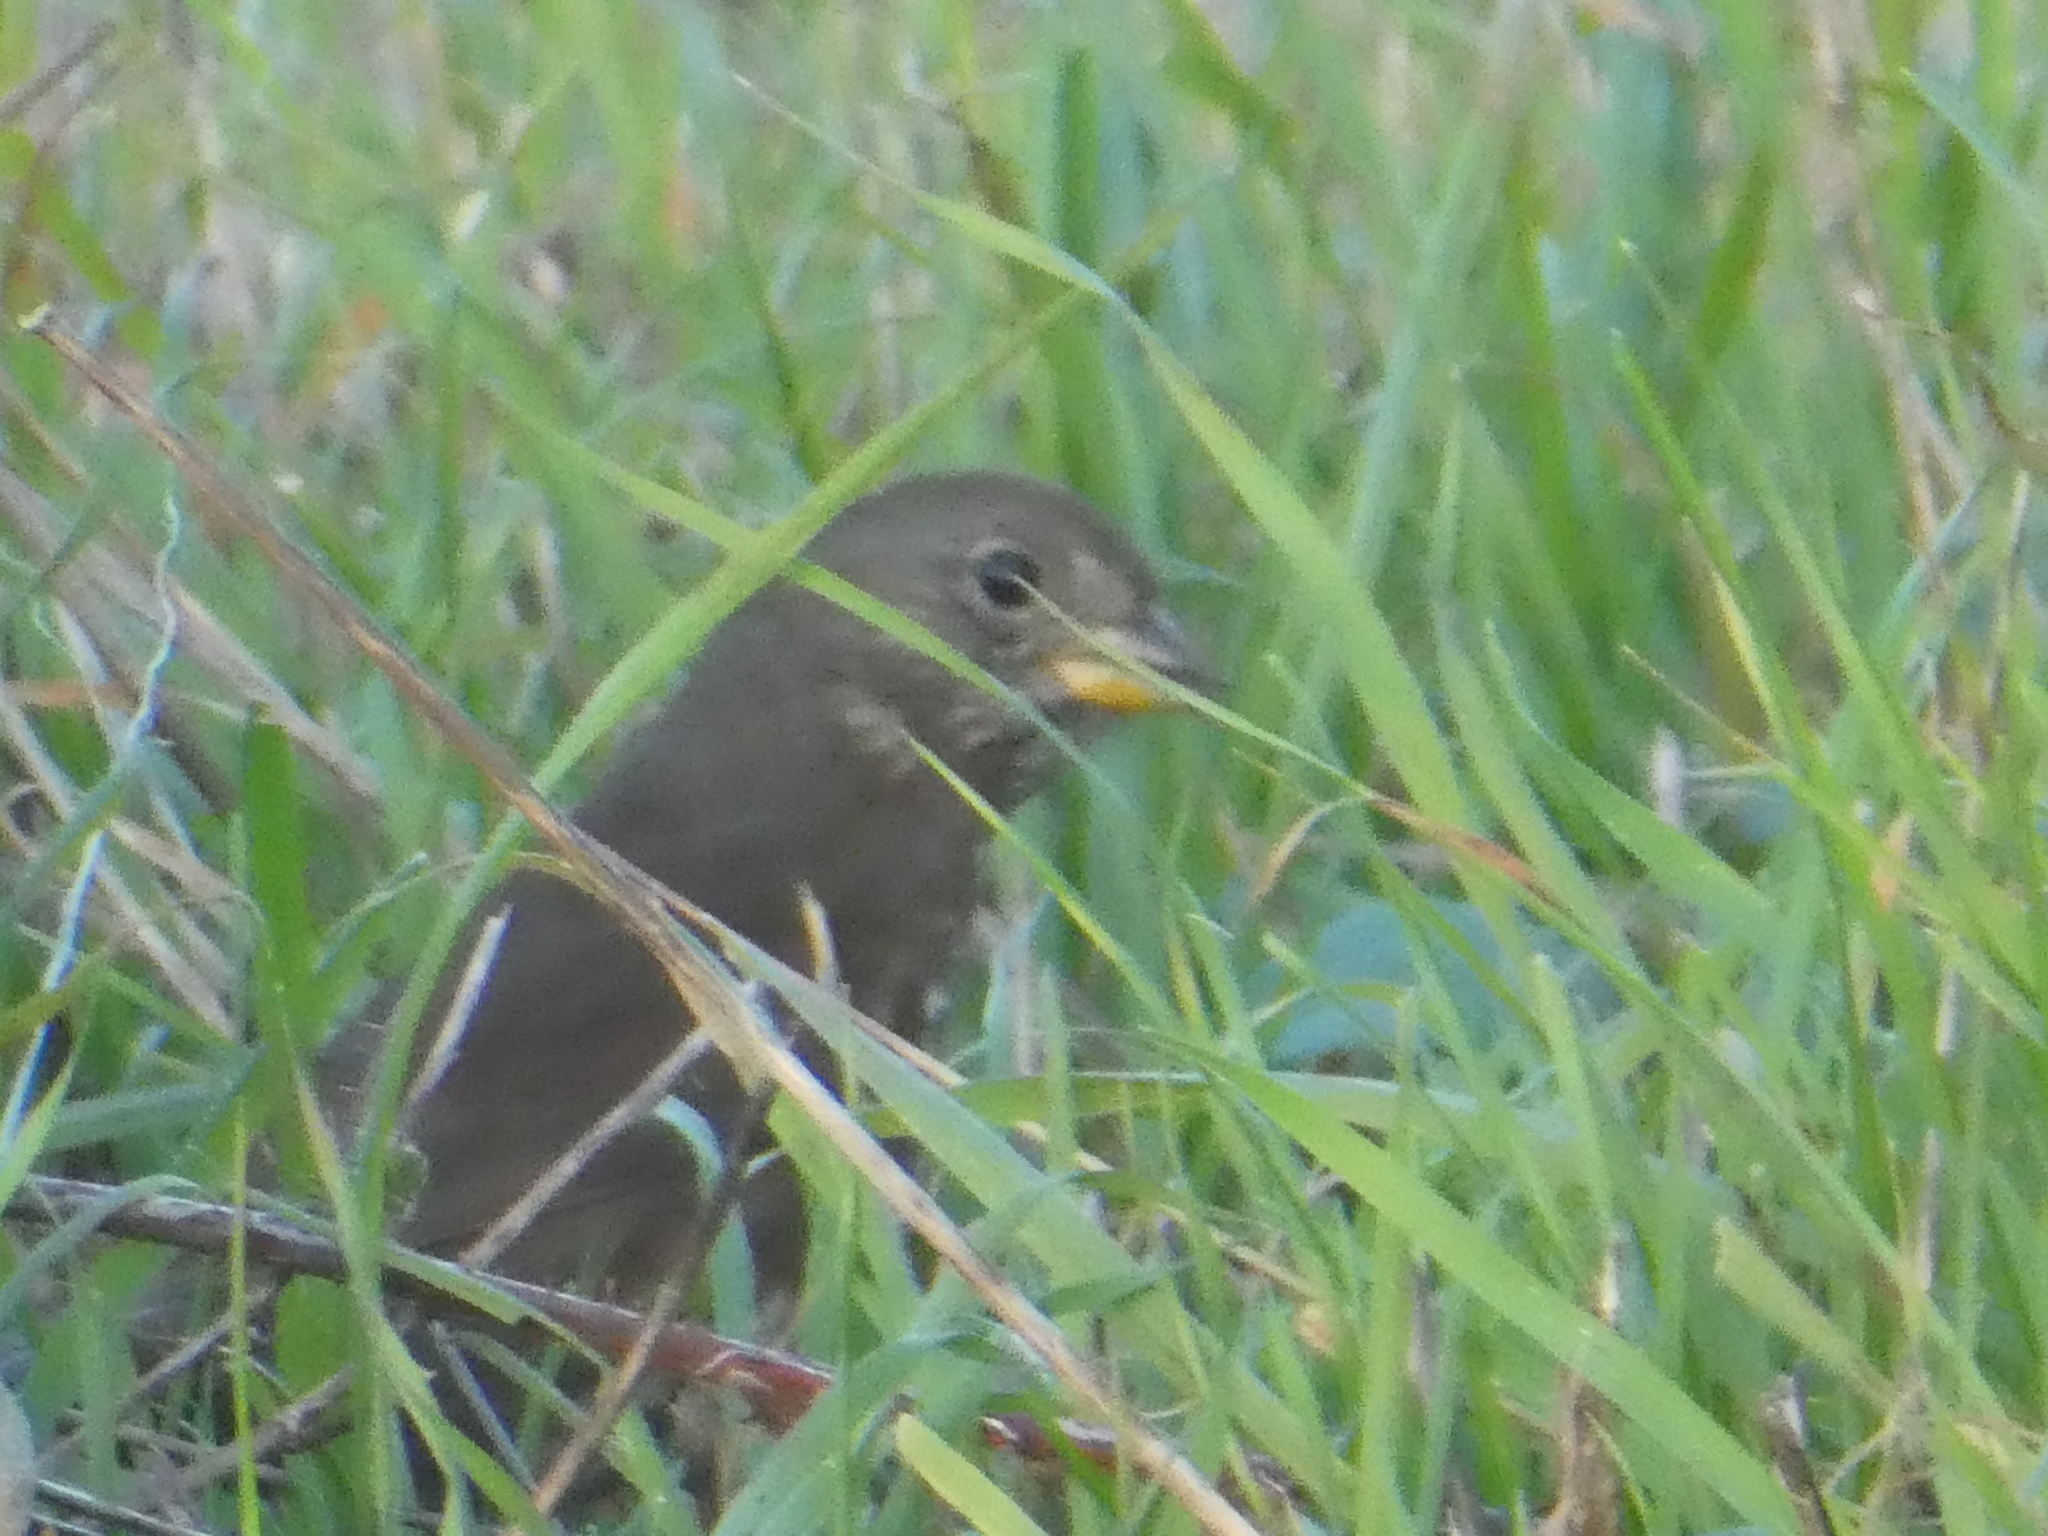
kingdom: Animalia
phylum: Chordata
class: Aves
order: Passeriformes
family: Passerellidae
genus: Passerella
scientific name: Passerella iliaca
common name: Fox sparrow
